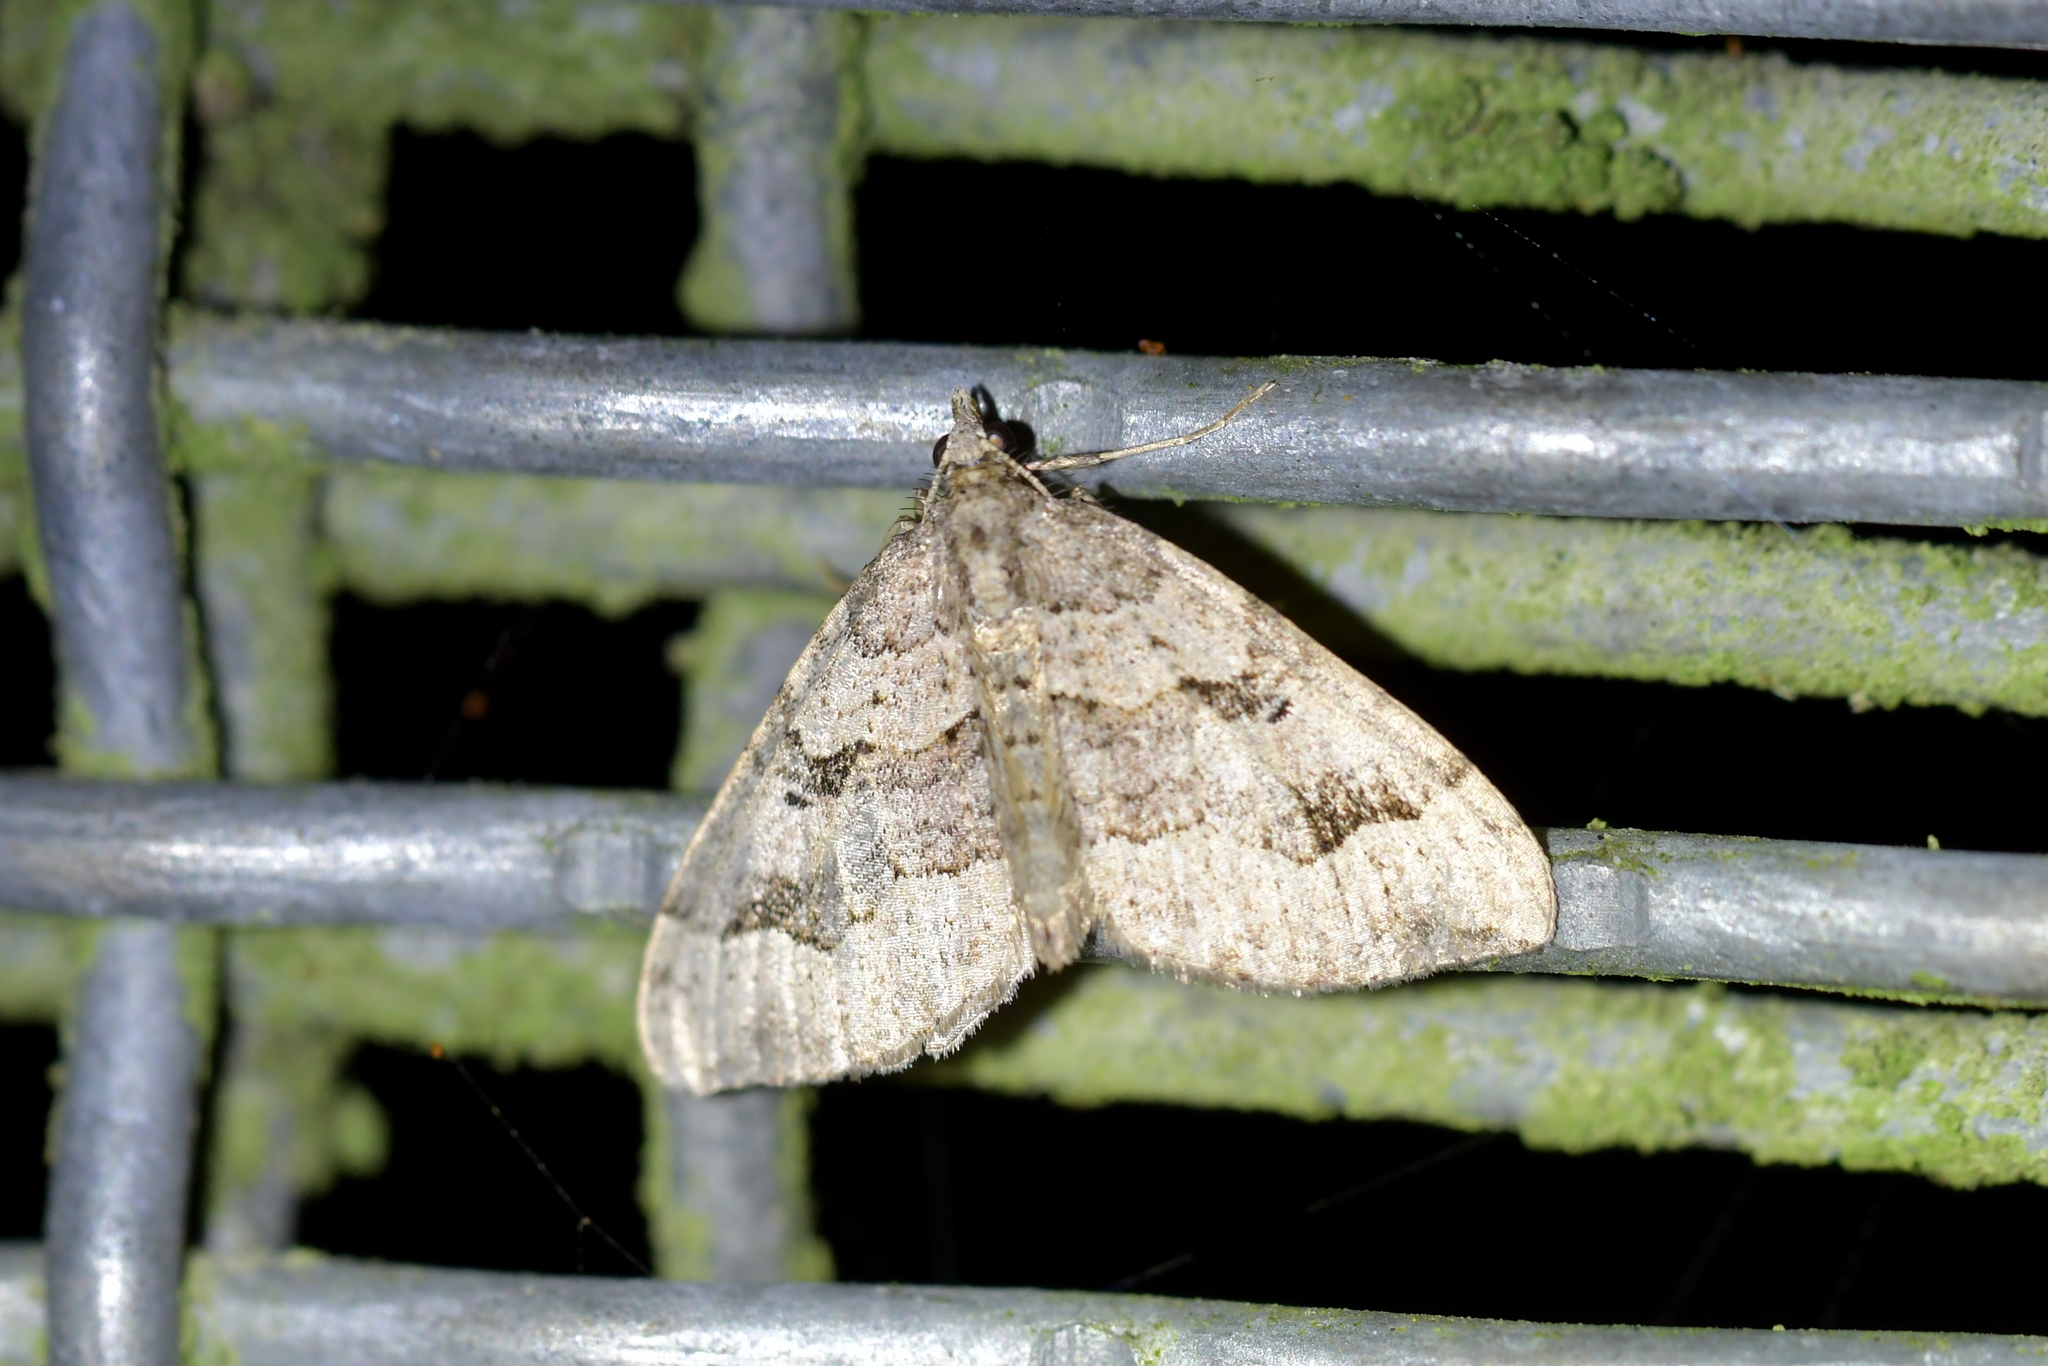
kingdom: Animalia
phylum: Arthropoda
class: Insecta
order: Lepidoptera
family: Geometridae
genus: Epyaxa
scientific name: Epyaxa rosearia
